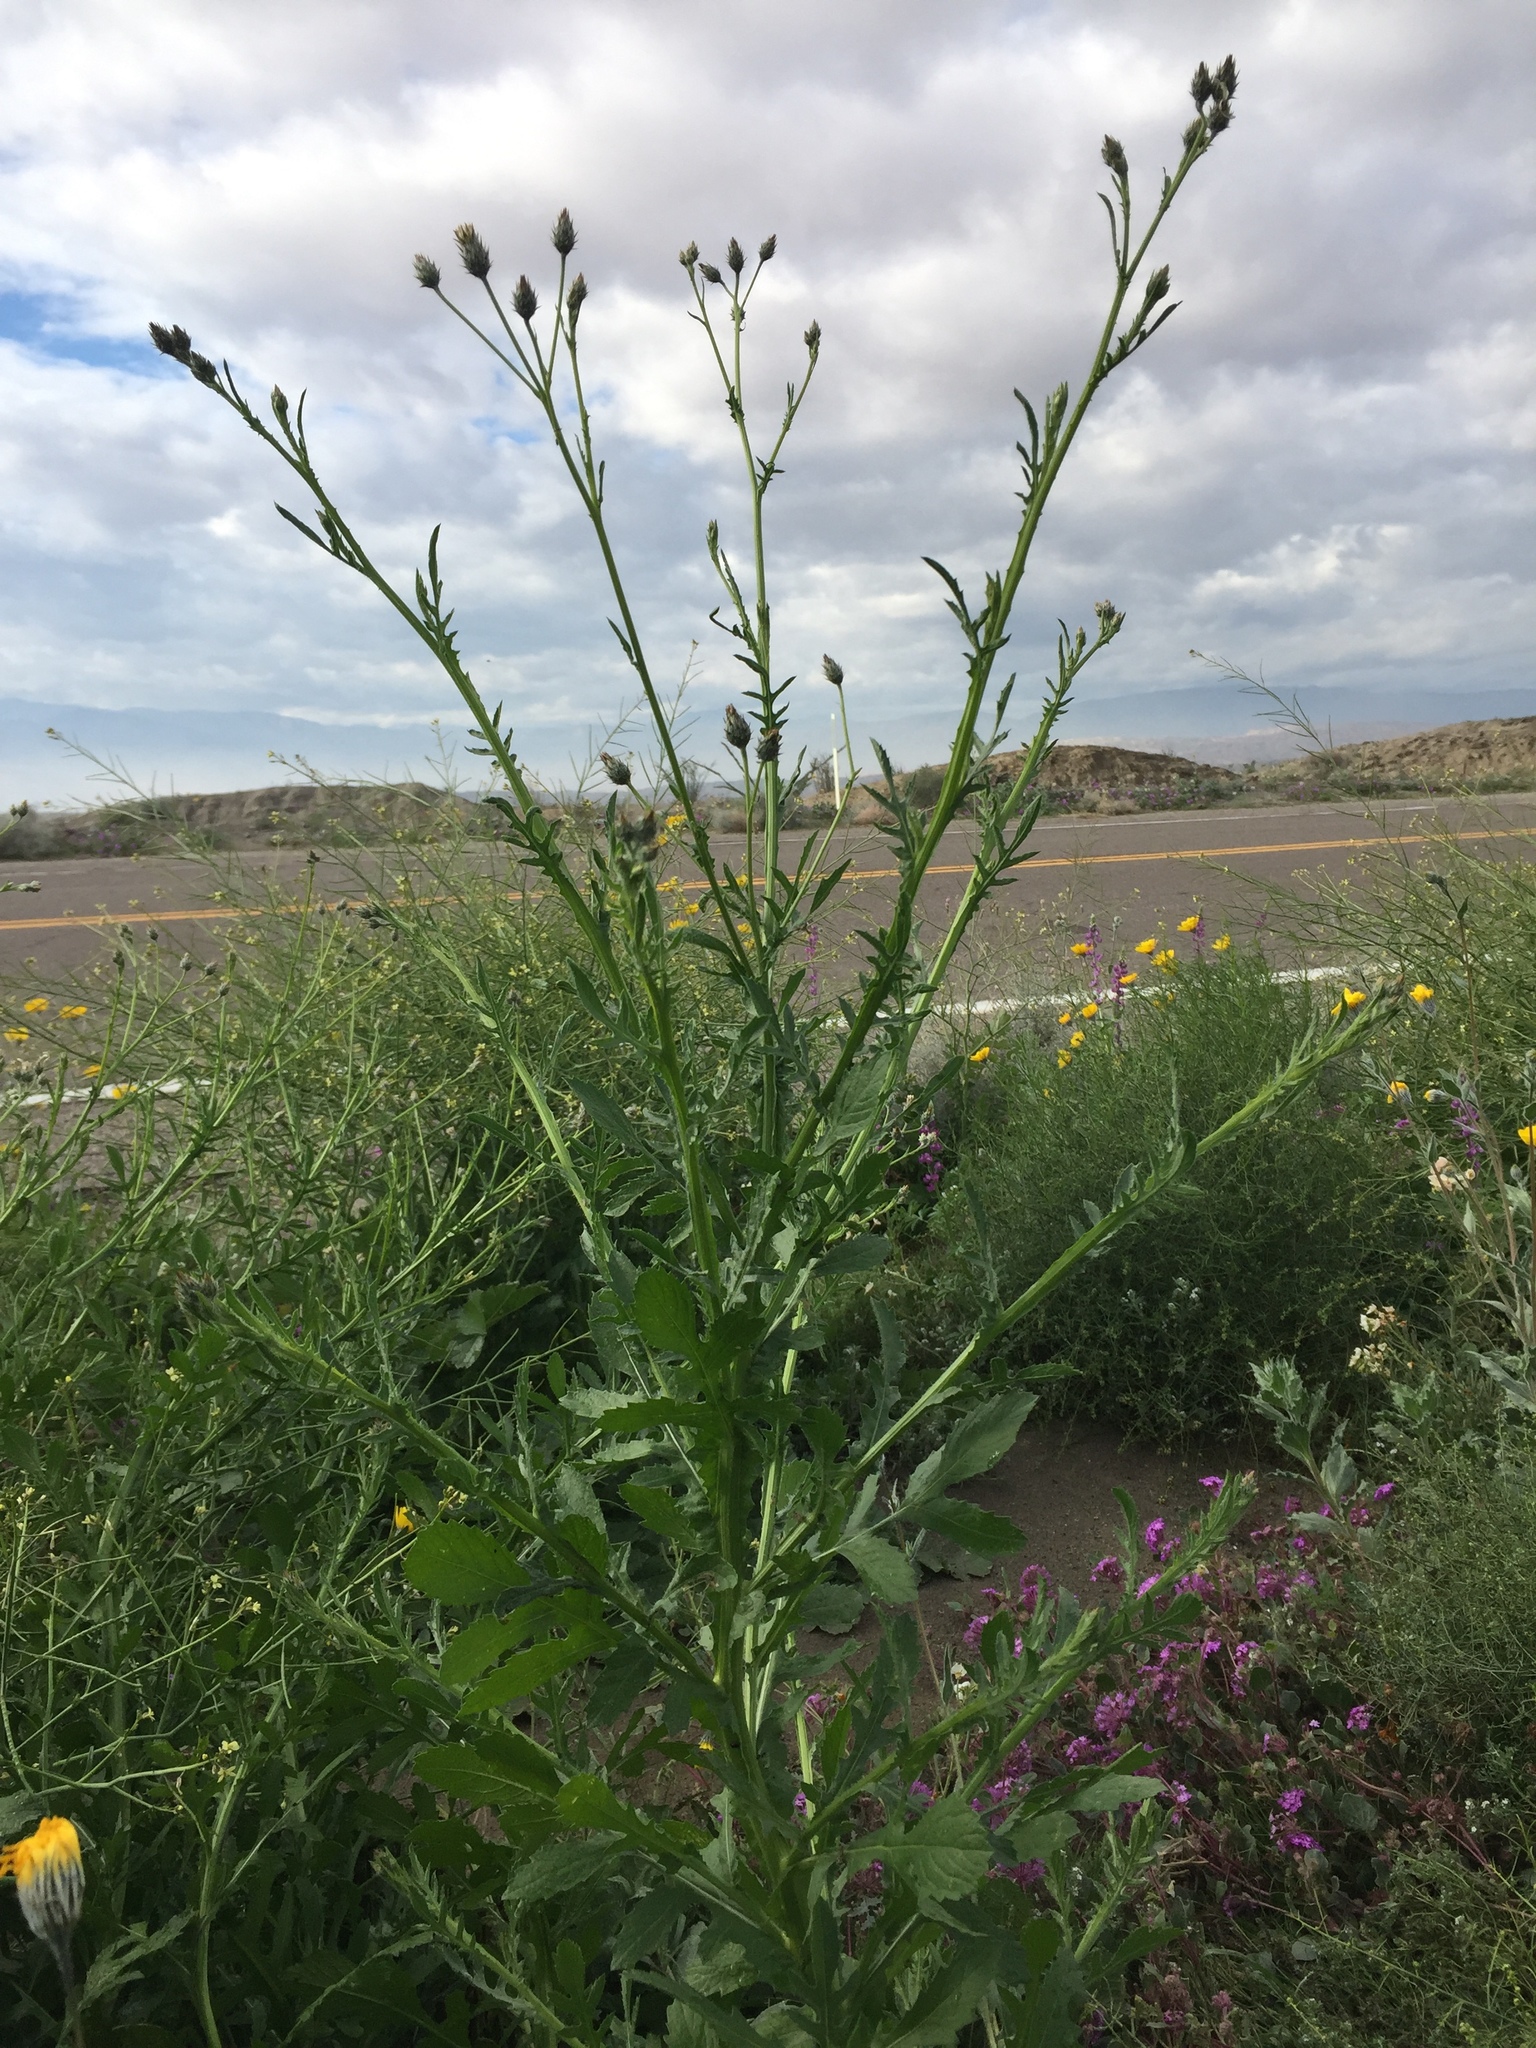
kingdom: Plantae
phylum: Tracheophyta
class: Magnoliopsida
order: Asterales
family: Asteraceae
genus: Volutaria
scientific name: Volutaria tubuliflora
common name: Desert knapweed
